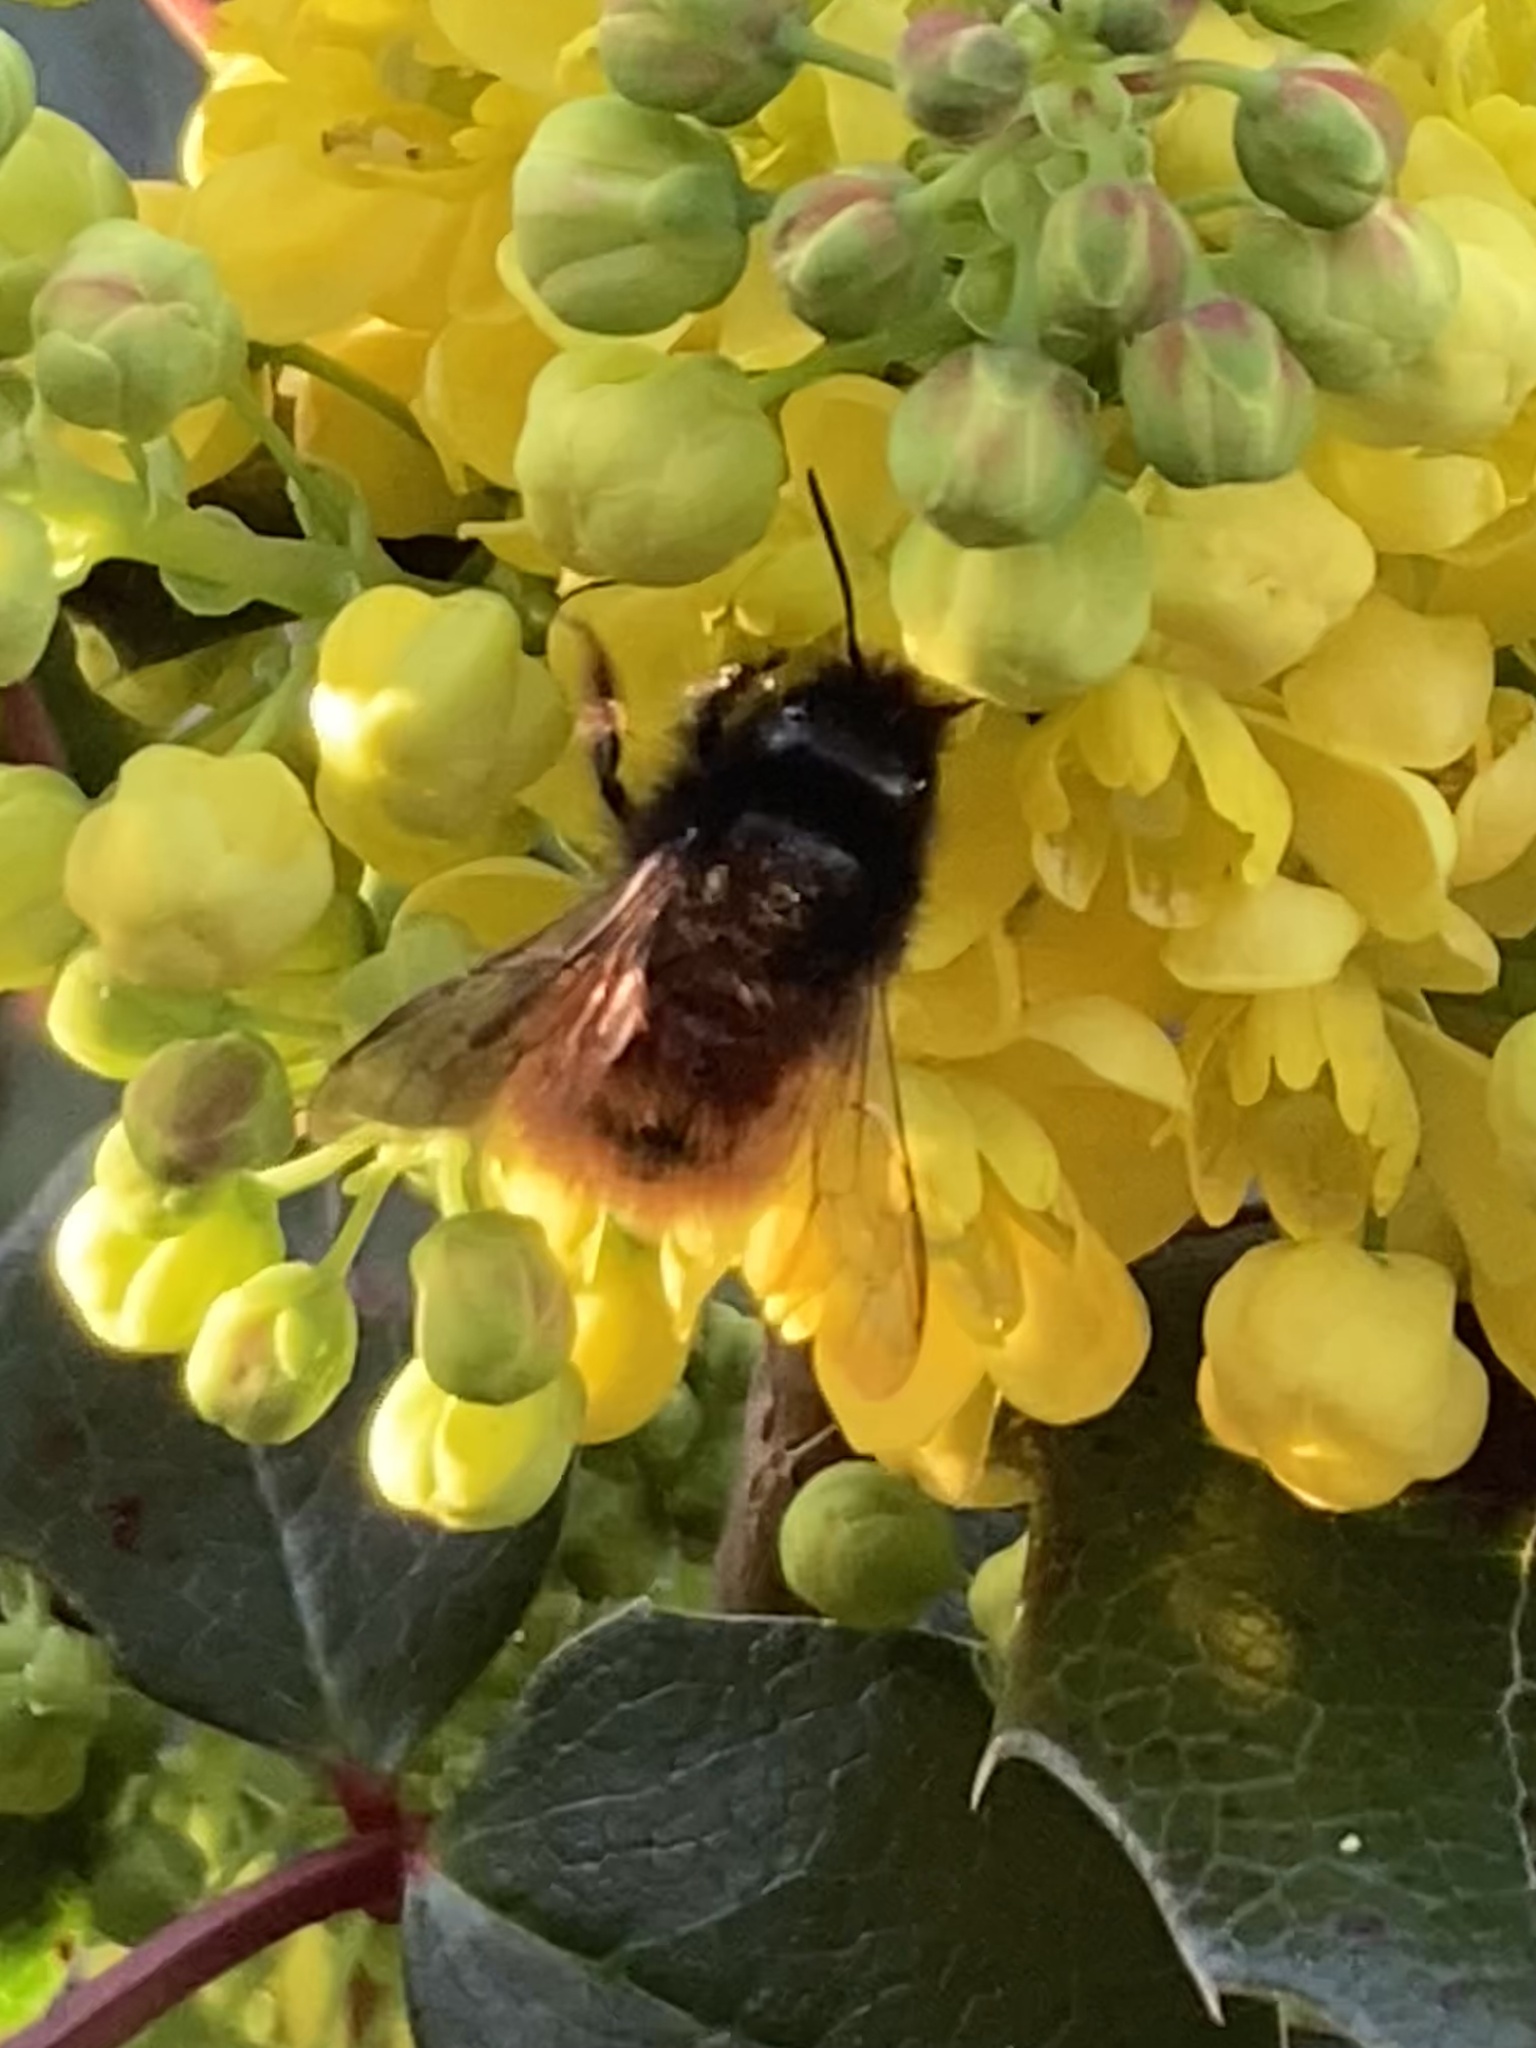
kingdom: Animalia
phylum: Arthropoda
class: Insecta
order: Hymenoptera
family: Megachilidae
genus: Osmia
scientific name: Osmia cornuta
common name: Mason bee
